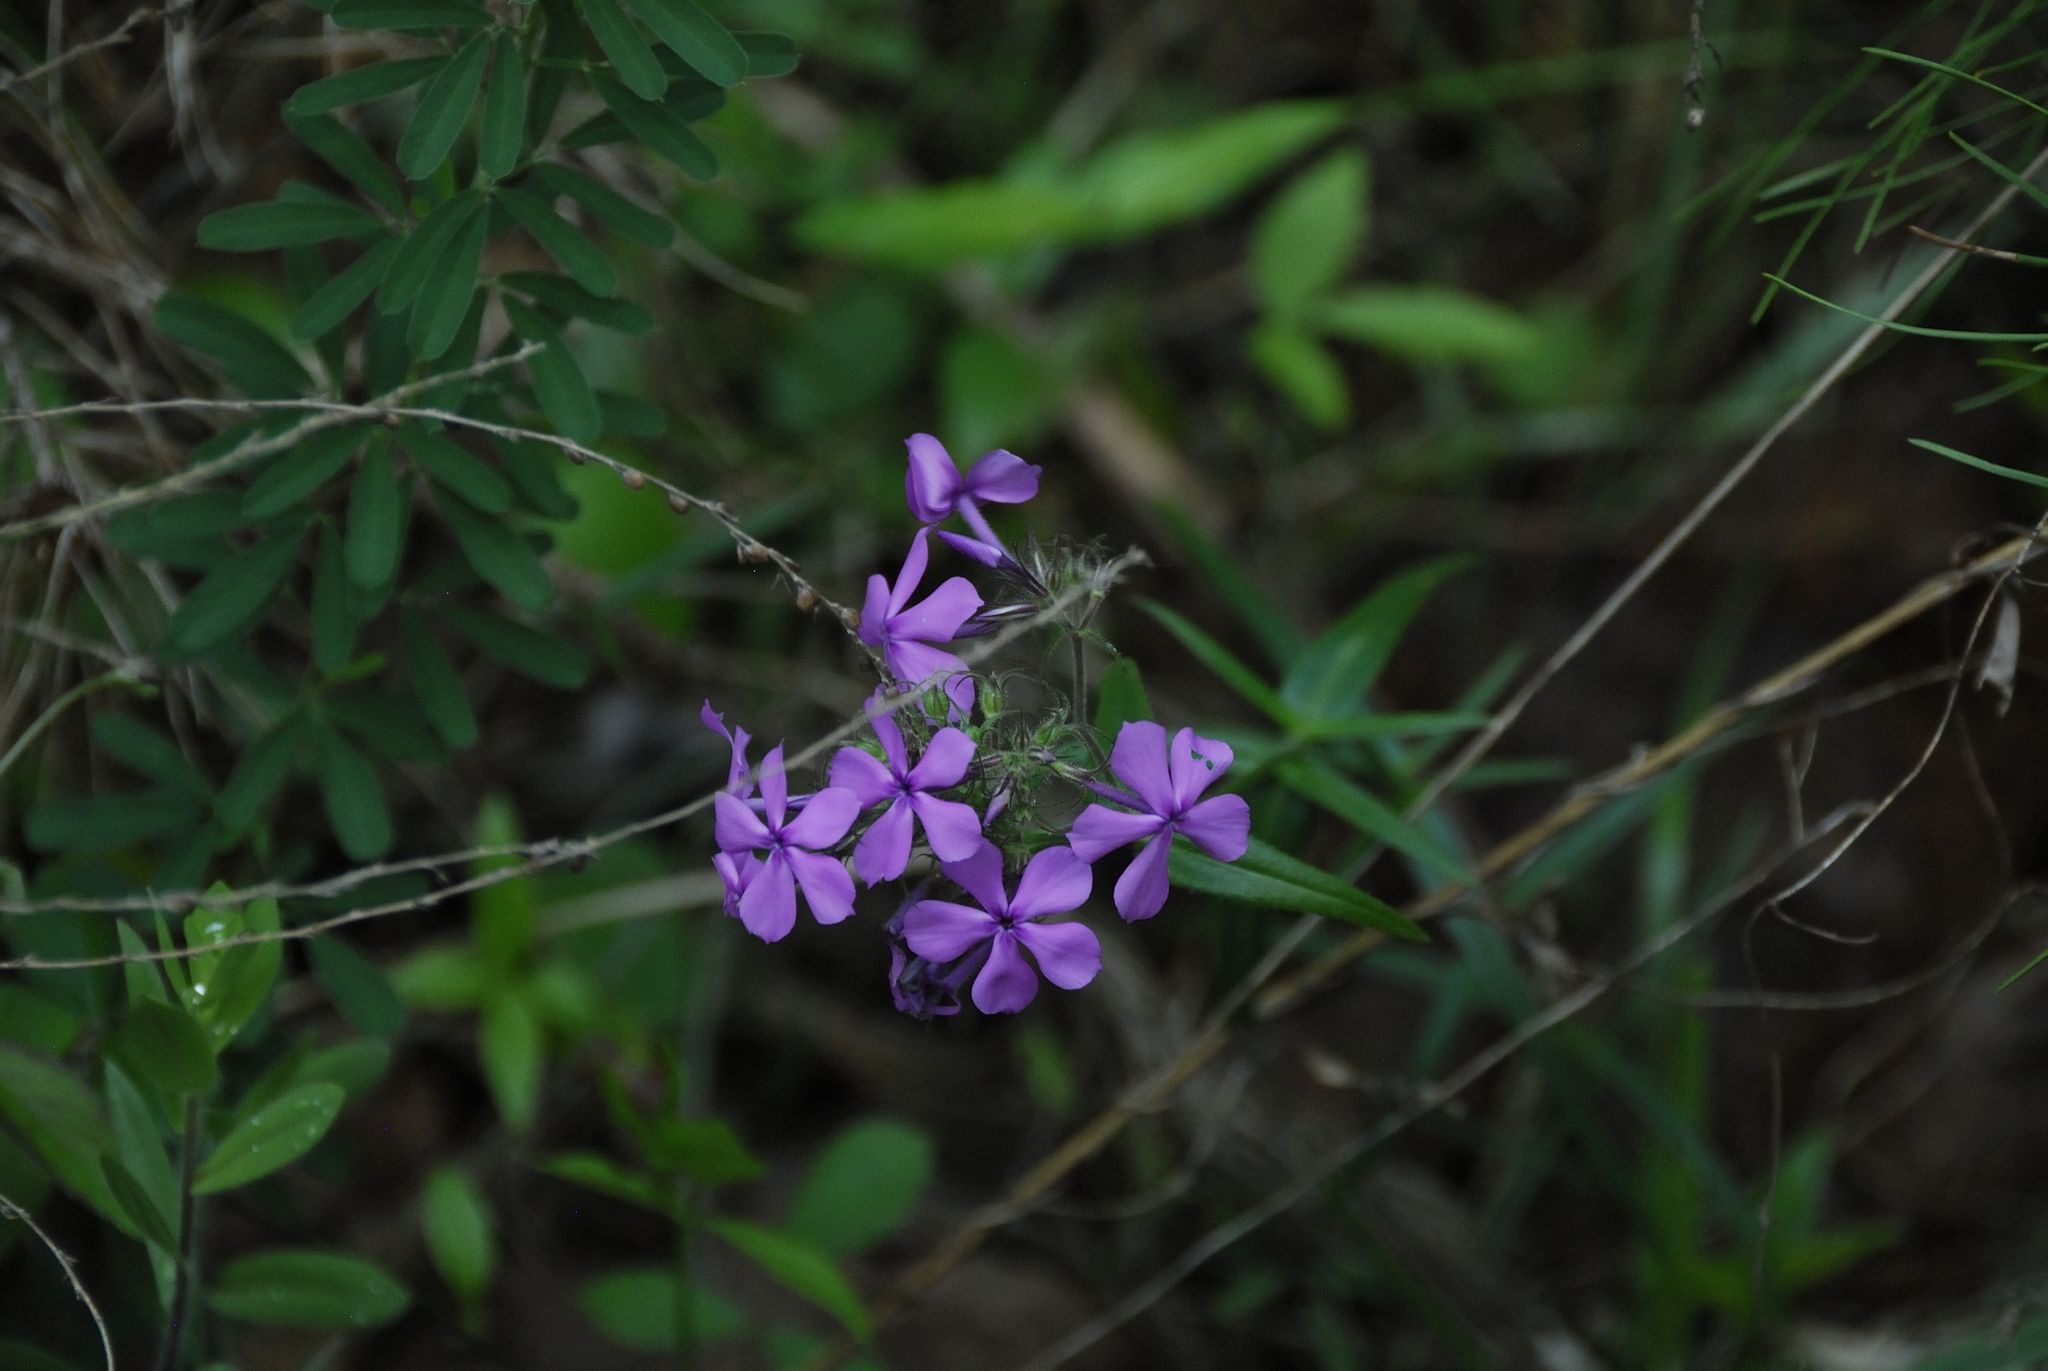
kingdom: Plantae
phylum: Tracheophyta
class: Magnoliopsida
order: Ericales
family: Polemoniaceae
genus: Phlox
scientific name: Phlox pilosa
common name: Prairie phlox
